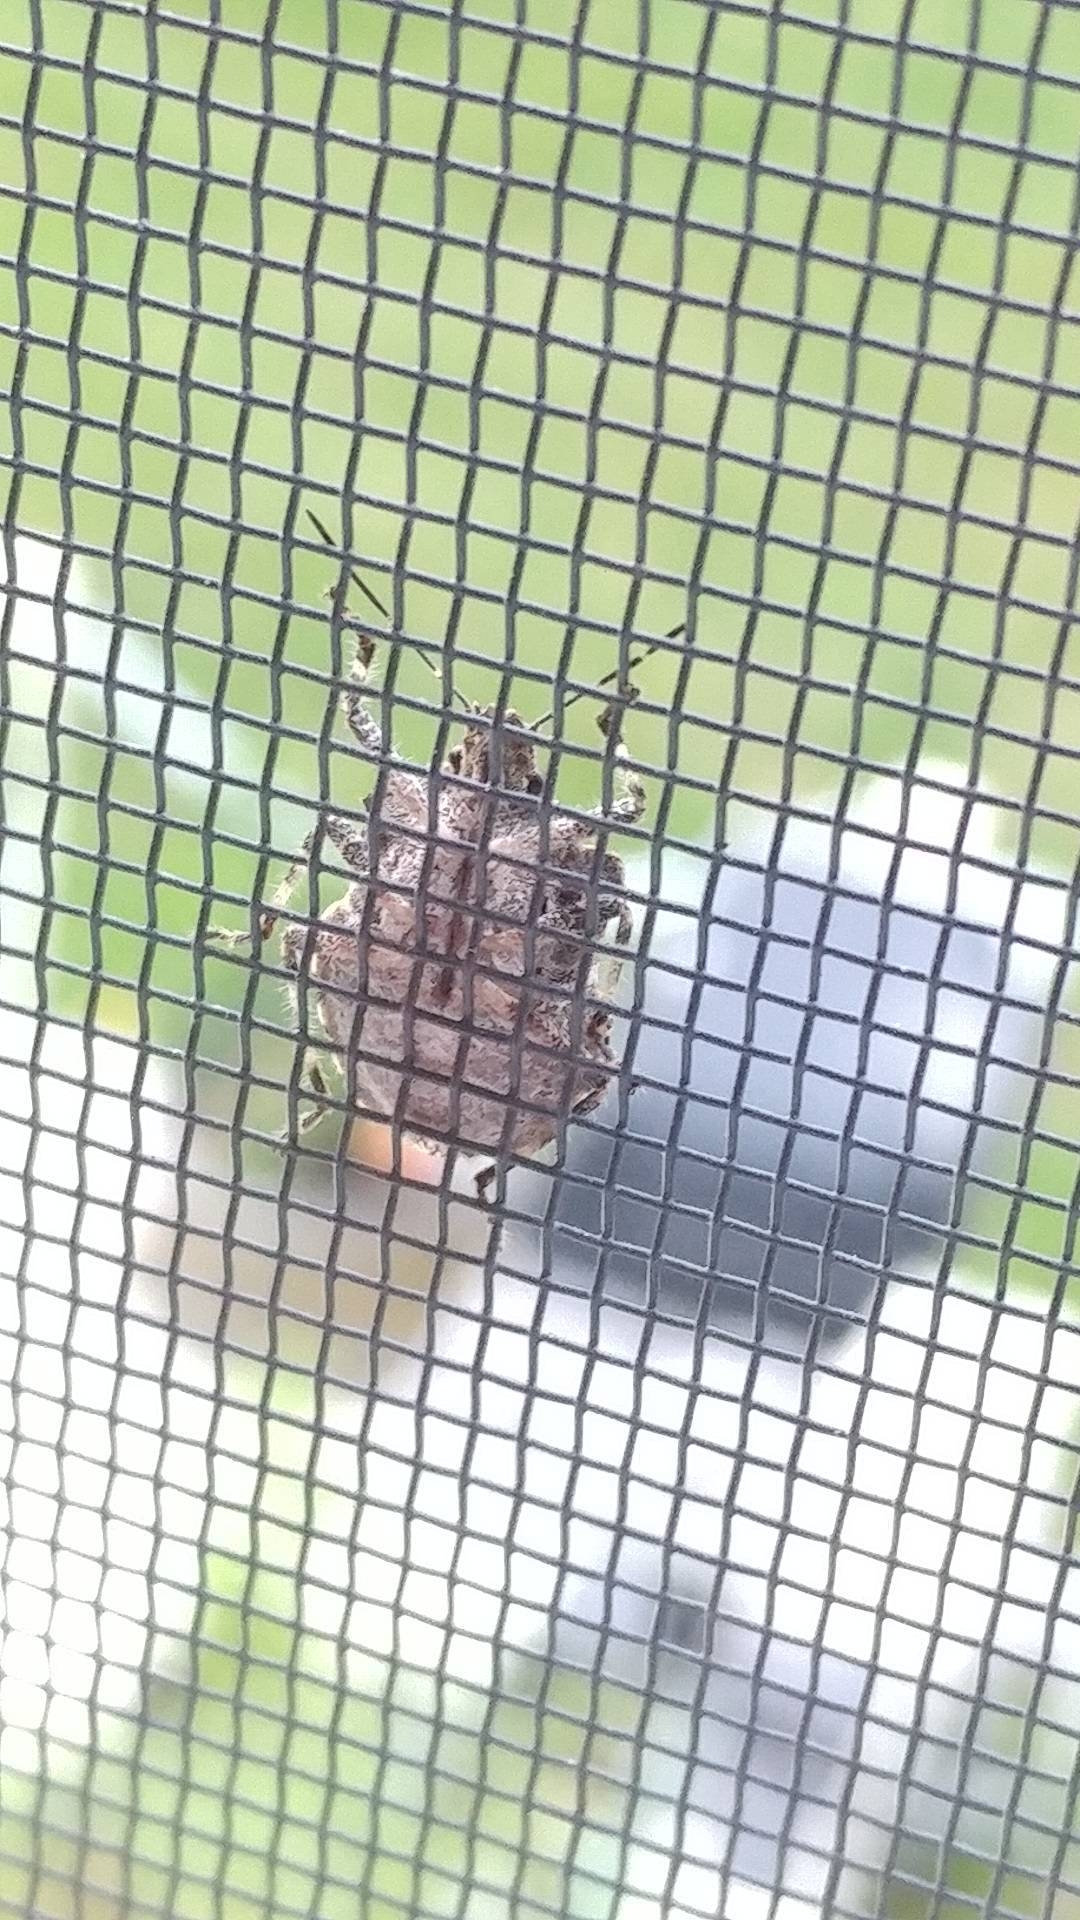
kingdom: Animalia
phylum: Arthropoda
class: Insecta
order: Hemiptera
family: Pentatomidae
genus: Halyomorpha
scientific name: Halyomorpha halys
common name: Brown marmorated stink bug
